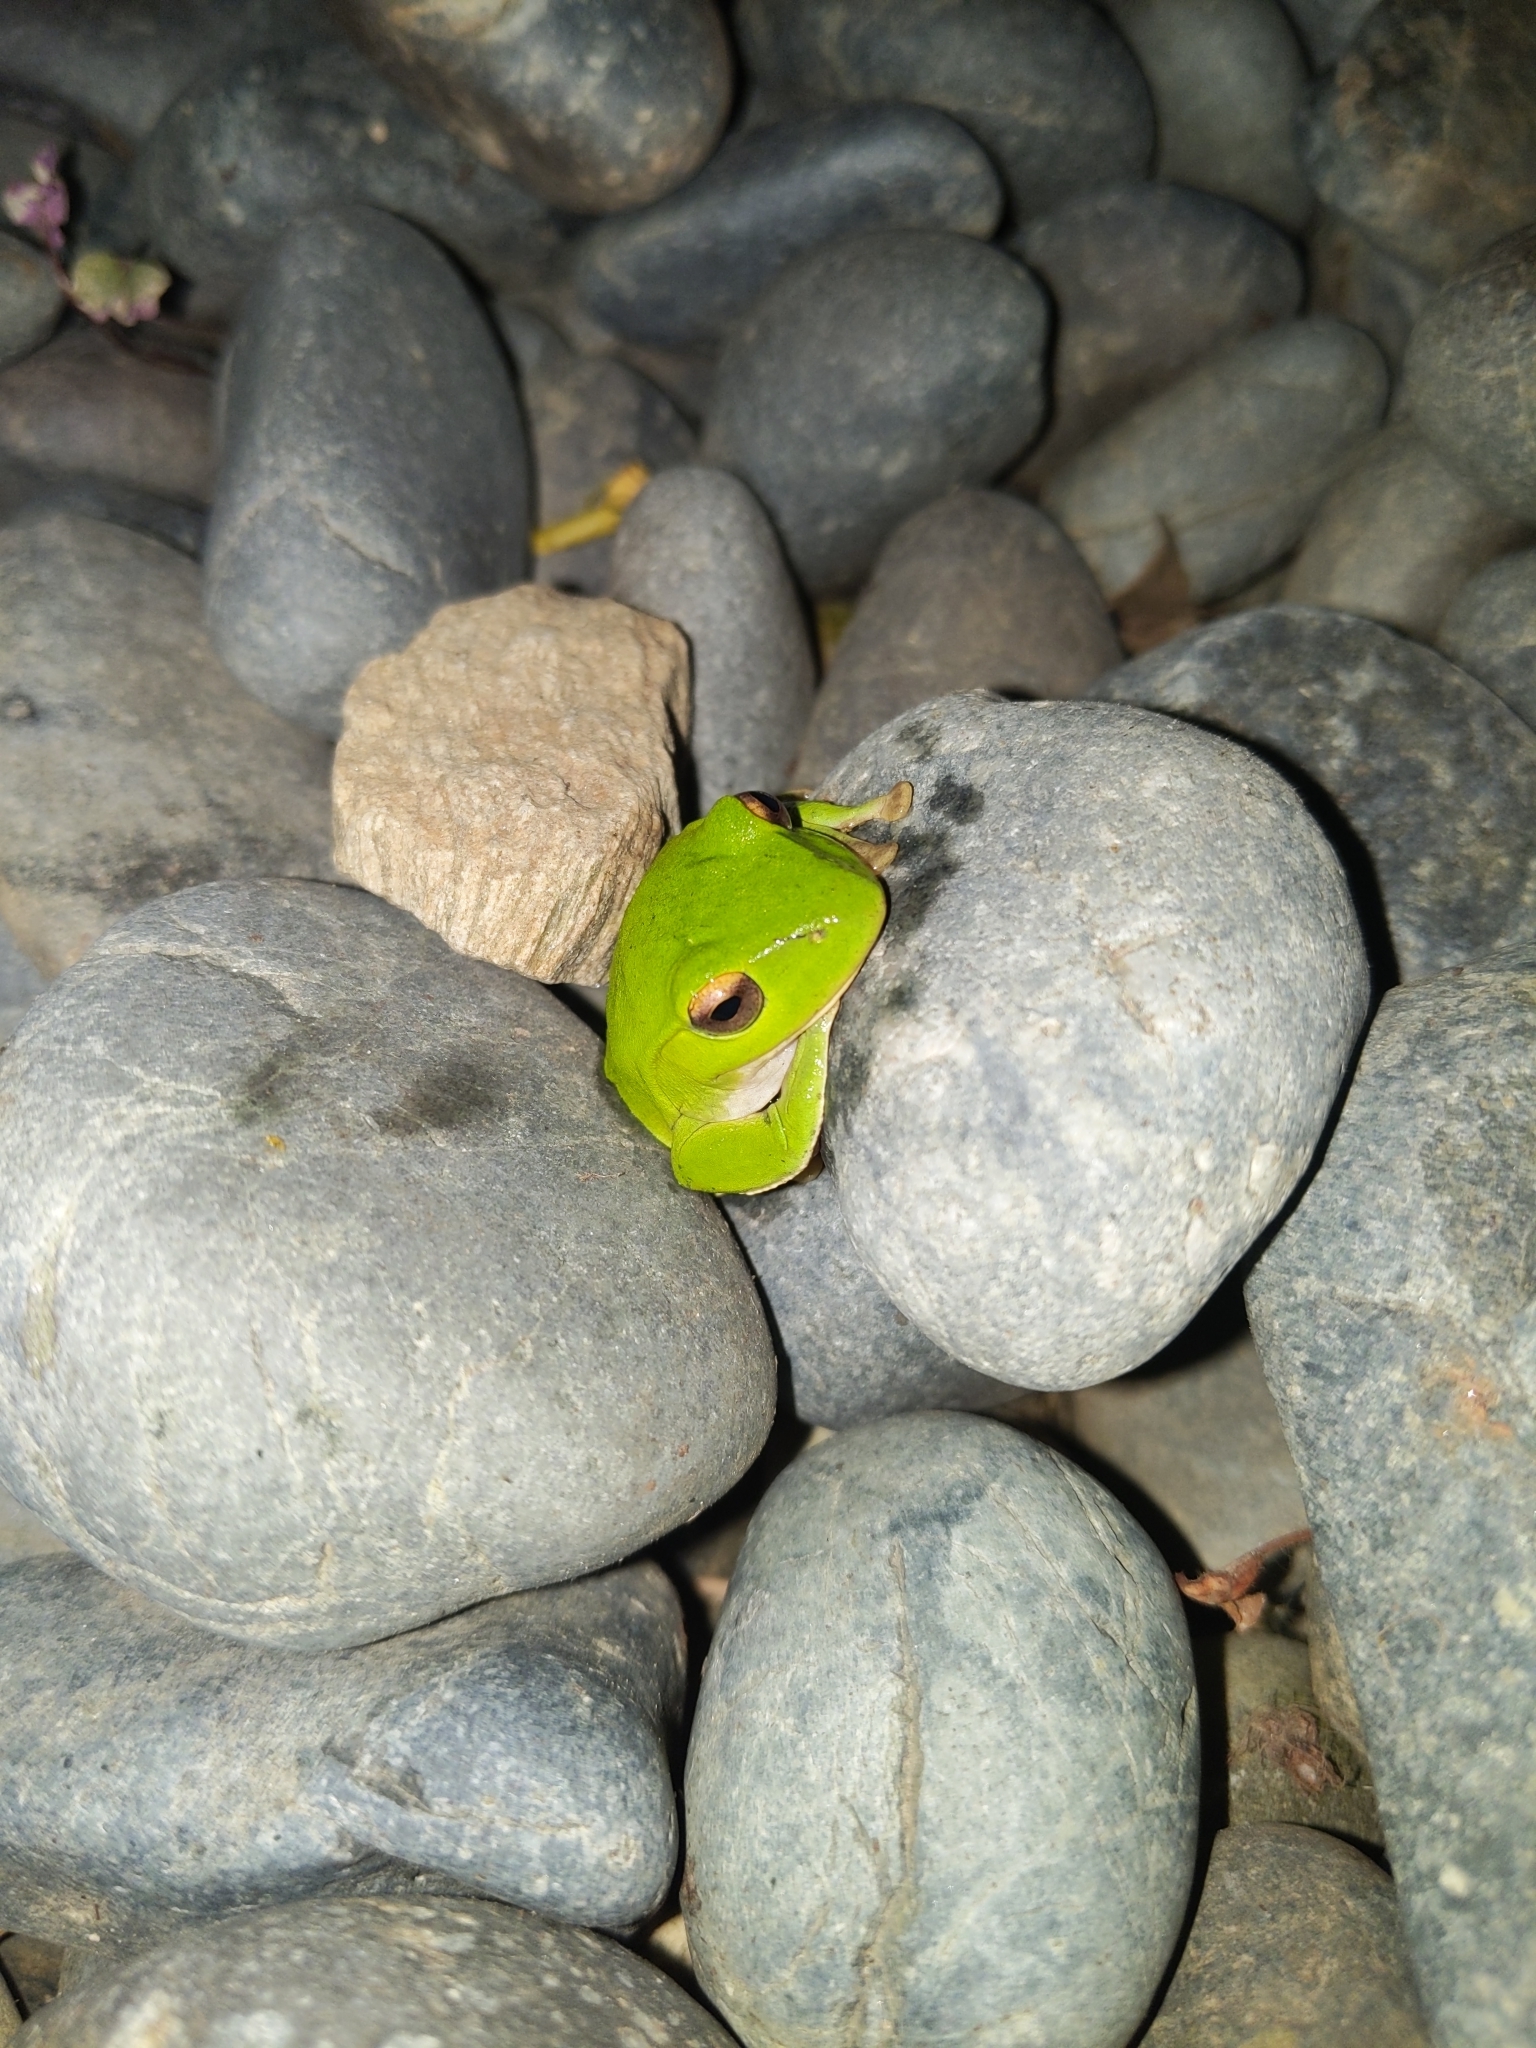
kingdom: Animalia
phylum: Chordata
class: Amphibia
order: Anura
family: Rhacophoridae
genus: Zhangixalus
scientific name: Zhangixalus moltrechti
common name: Moltrecht's treefrog
